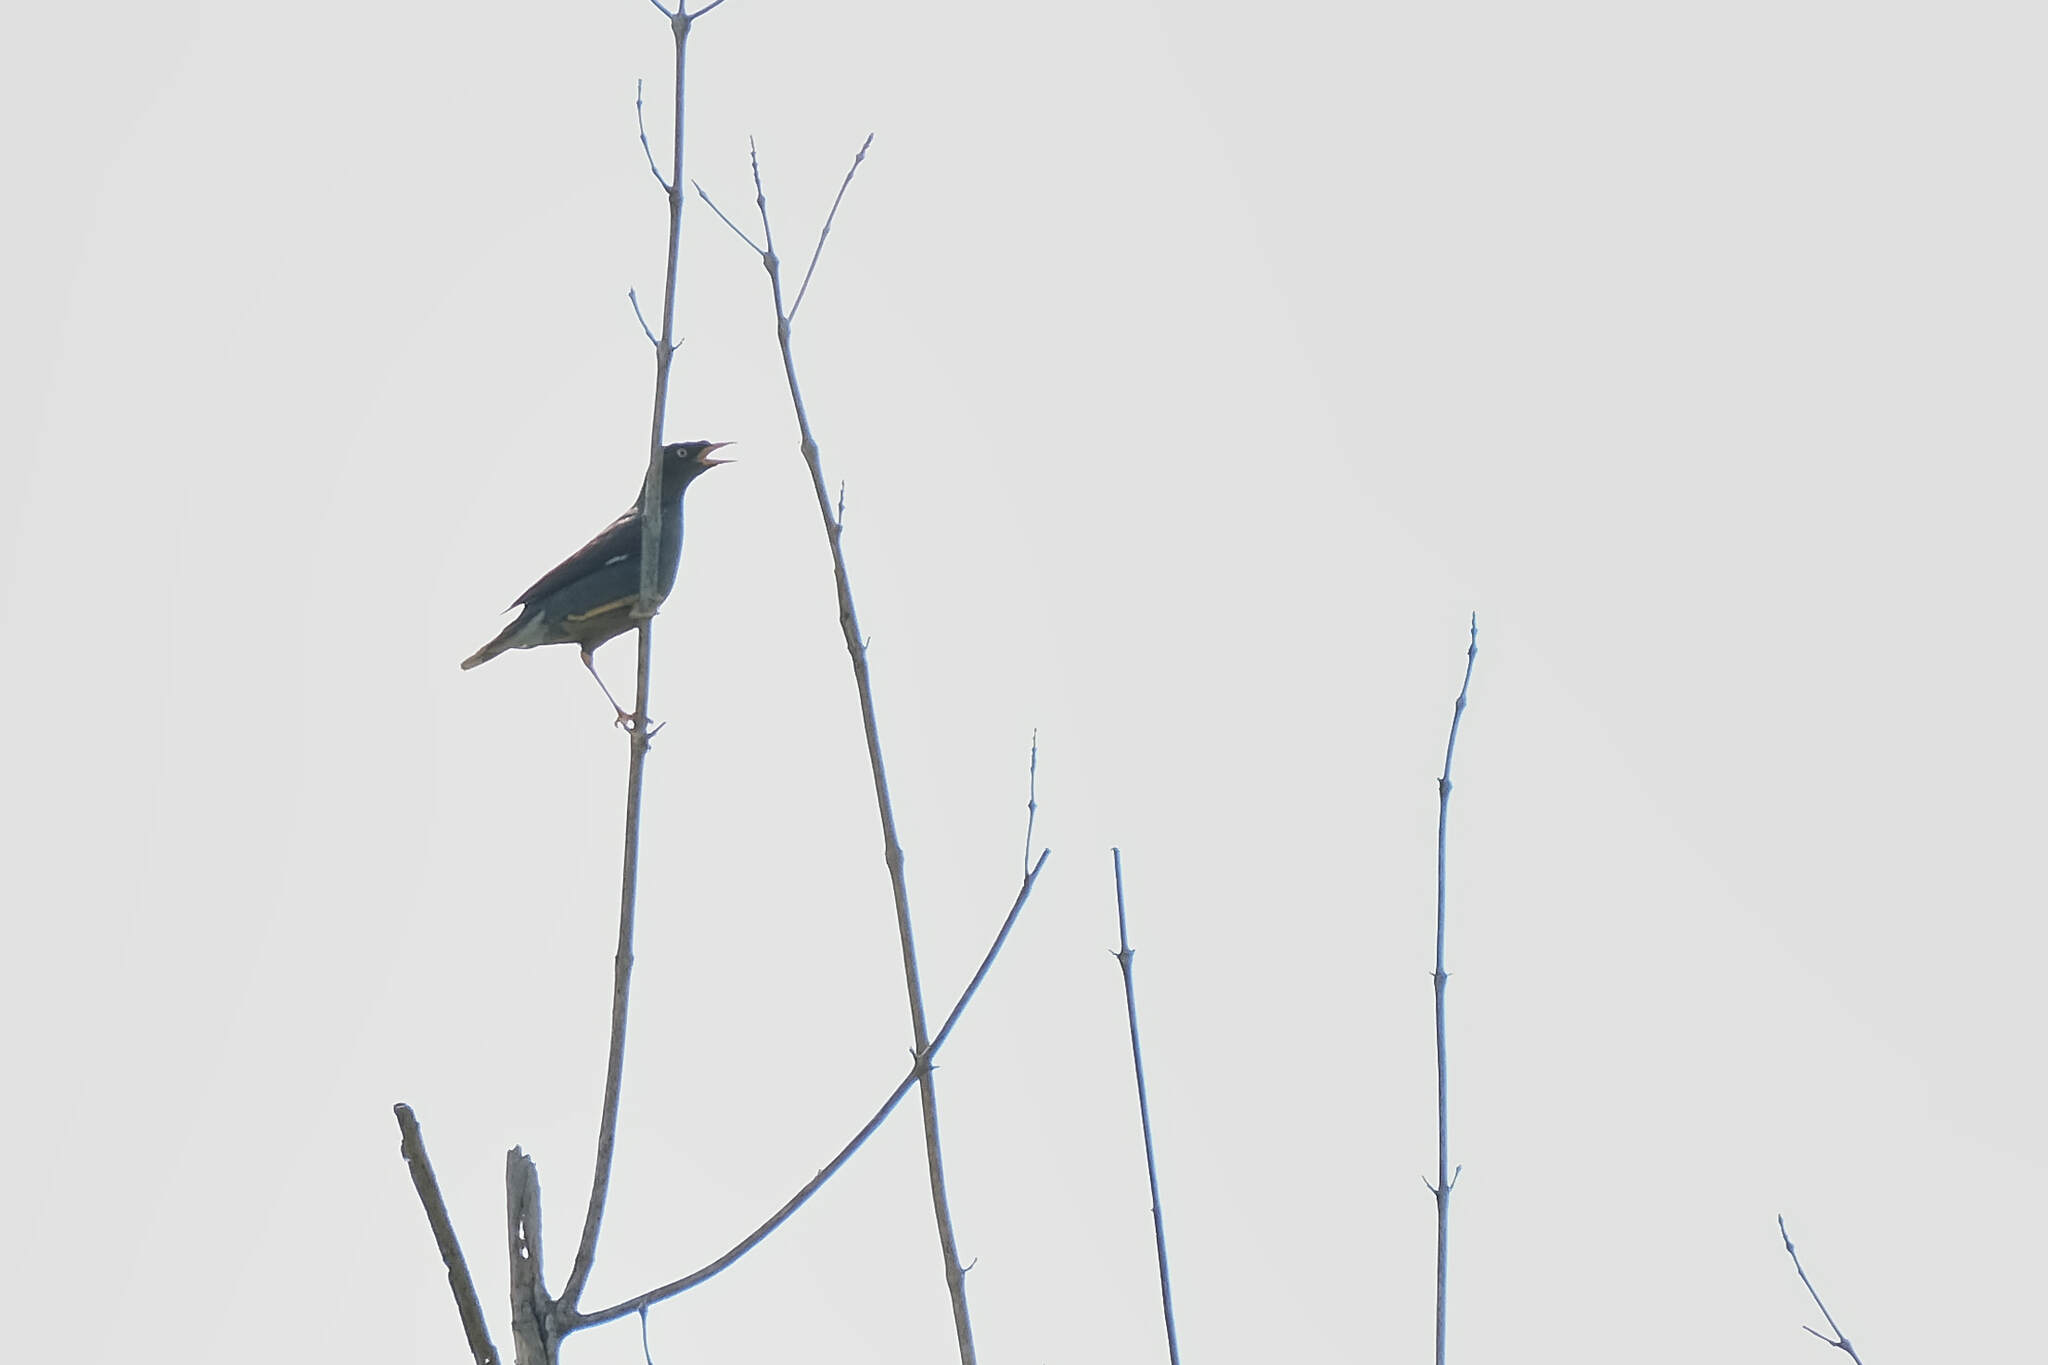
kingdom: Animalia
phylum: Chordata
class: Aves
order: Passeriformes
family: Sturnidae
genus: Acridotheres
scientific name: Acridotheres javanicus
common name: Javan myna
